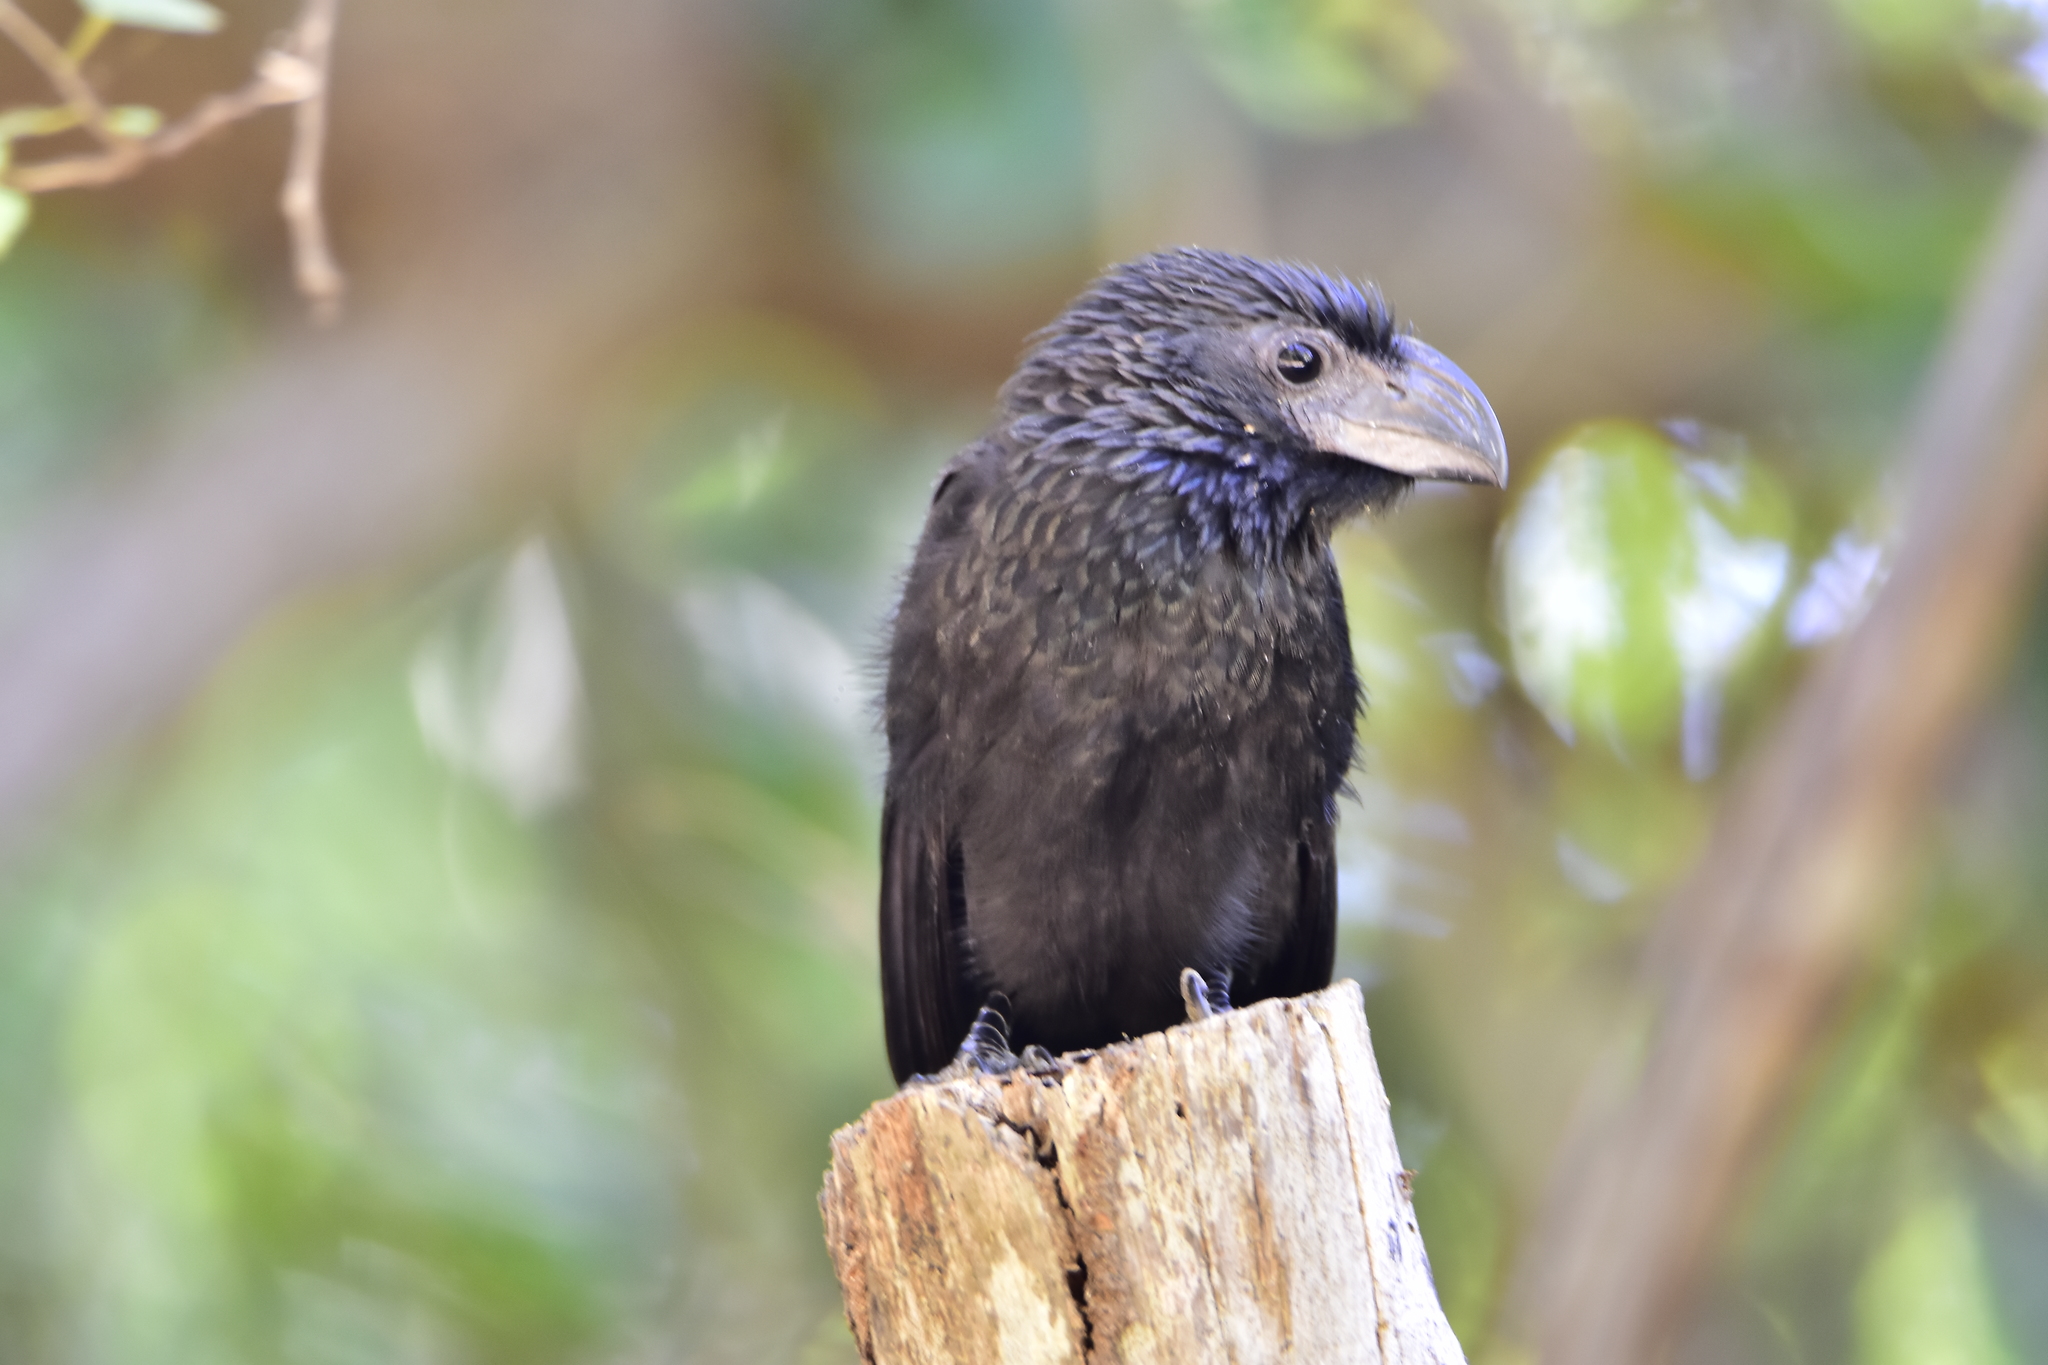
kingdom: Animalia
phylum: Chordata
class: Aves
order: Cuculiformes
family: Cuculidae
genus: Crotophaga
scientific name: Crotophaga sulcirostris
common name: Groove-billed ani
